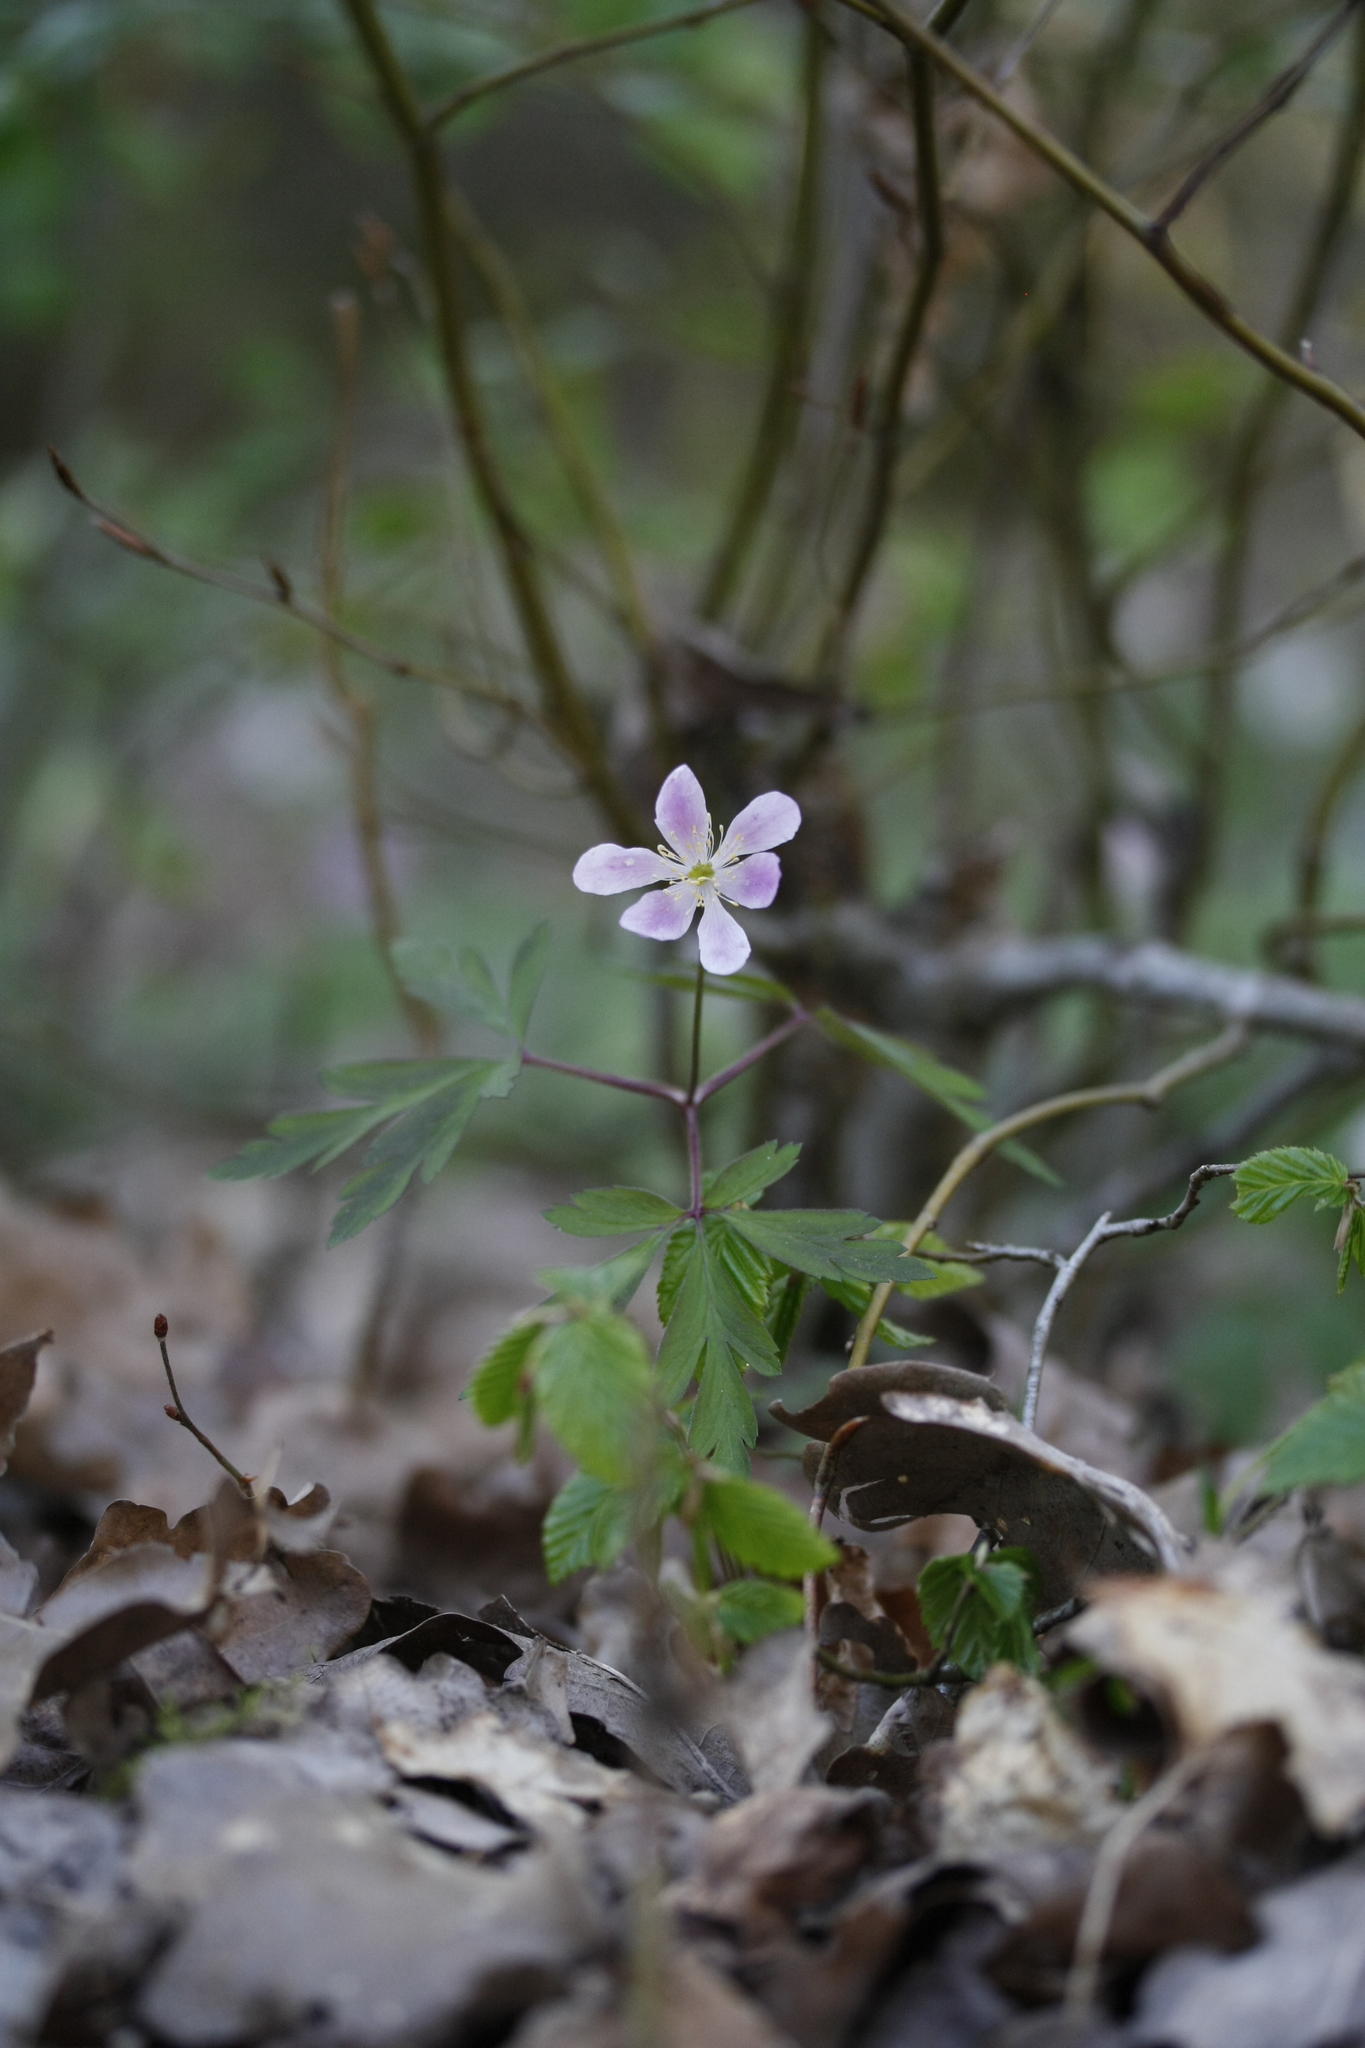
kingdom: Plantae
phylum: Tracheophyta
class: Magnoliopsida
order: Ranunculales
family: Ranunculaceae
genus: Anemone
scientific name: Anemone nemorosa
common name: Wood anemone
